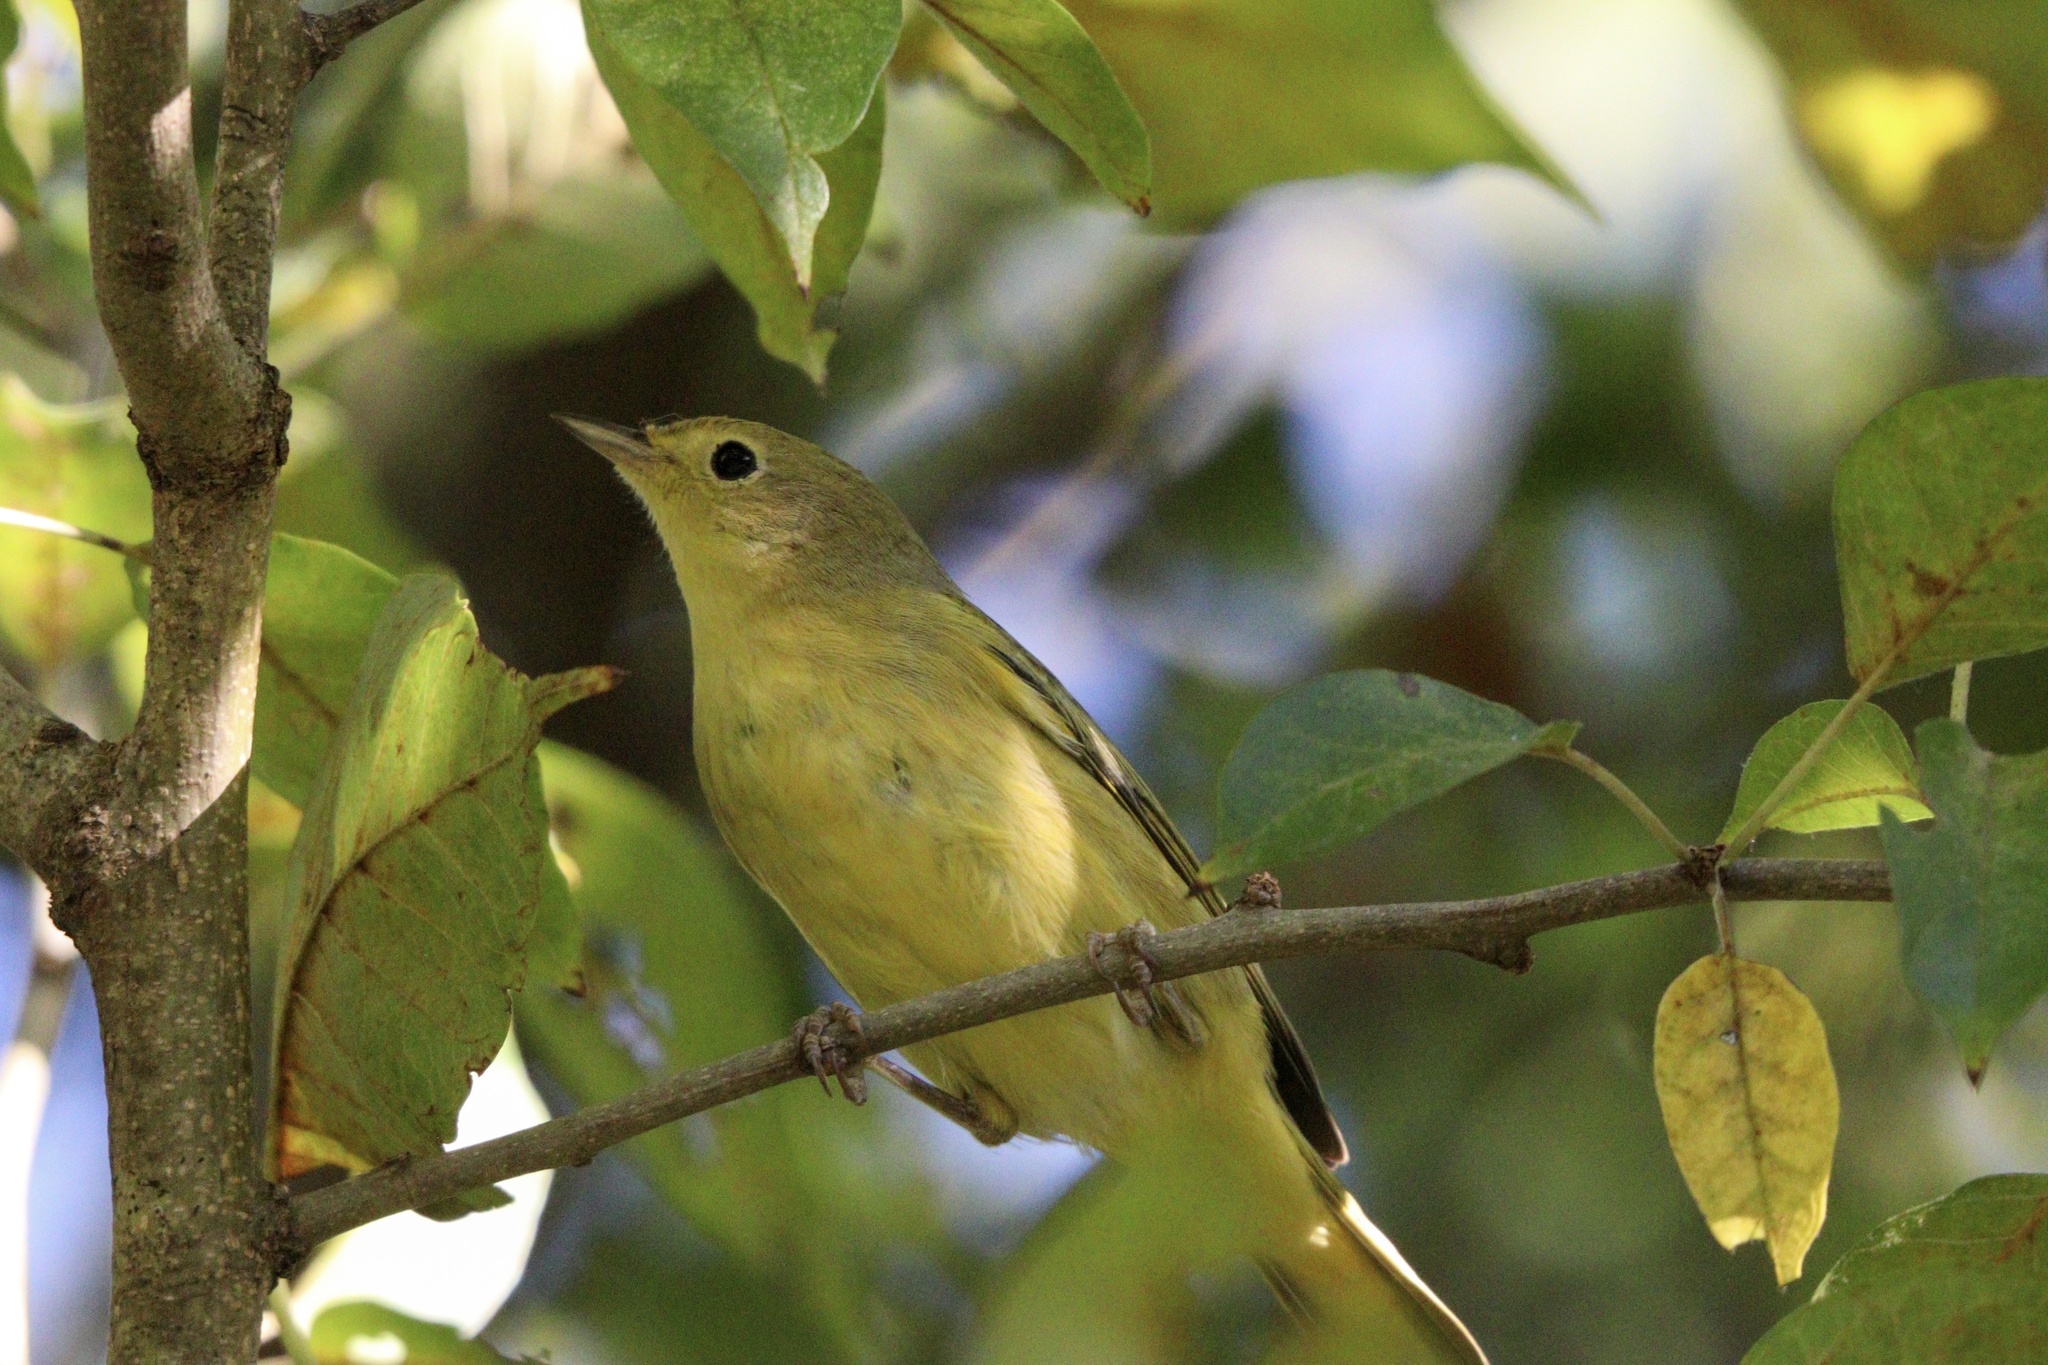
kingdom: Animalia
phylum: Chordata
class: Aves
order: Passeriformes
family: Parulidae
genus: Setophaga
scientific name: Setophaga petechia
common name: Yellow warbler
